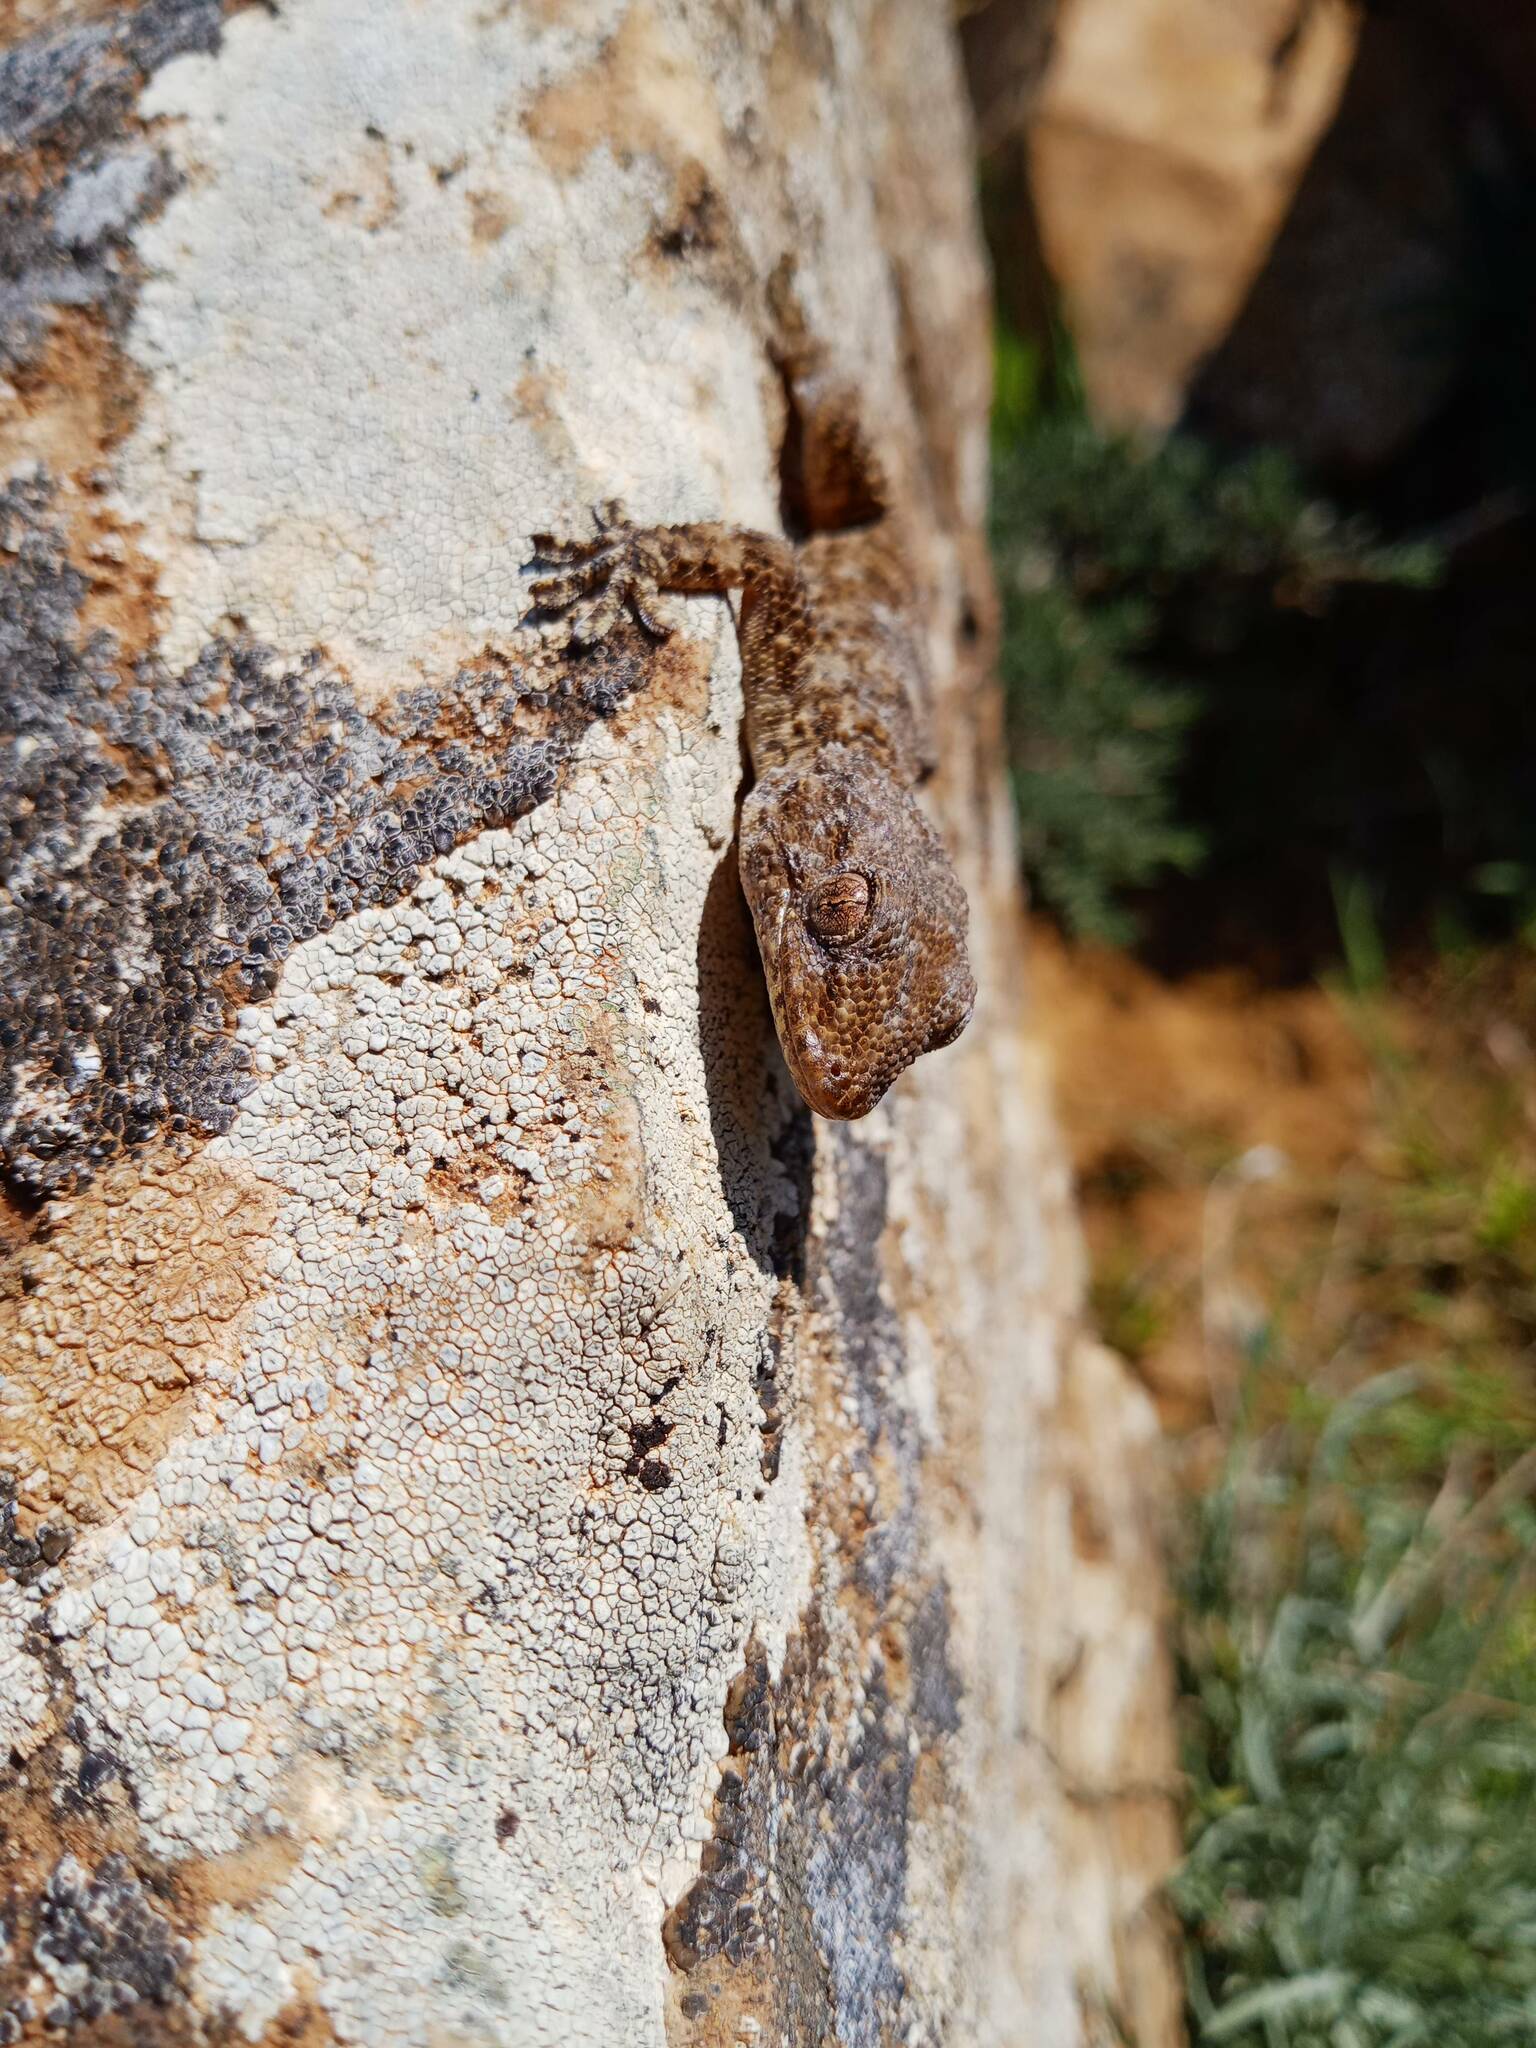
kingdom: Animalia
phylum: Chordata
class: Squamata
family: Phyllodactylidae
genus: Tarentola
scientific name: Tarentola mauritanica
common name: Moorish gecko
